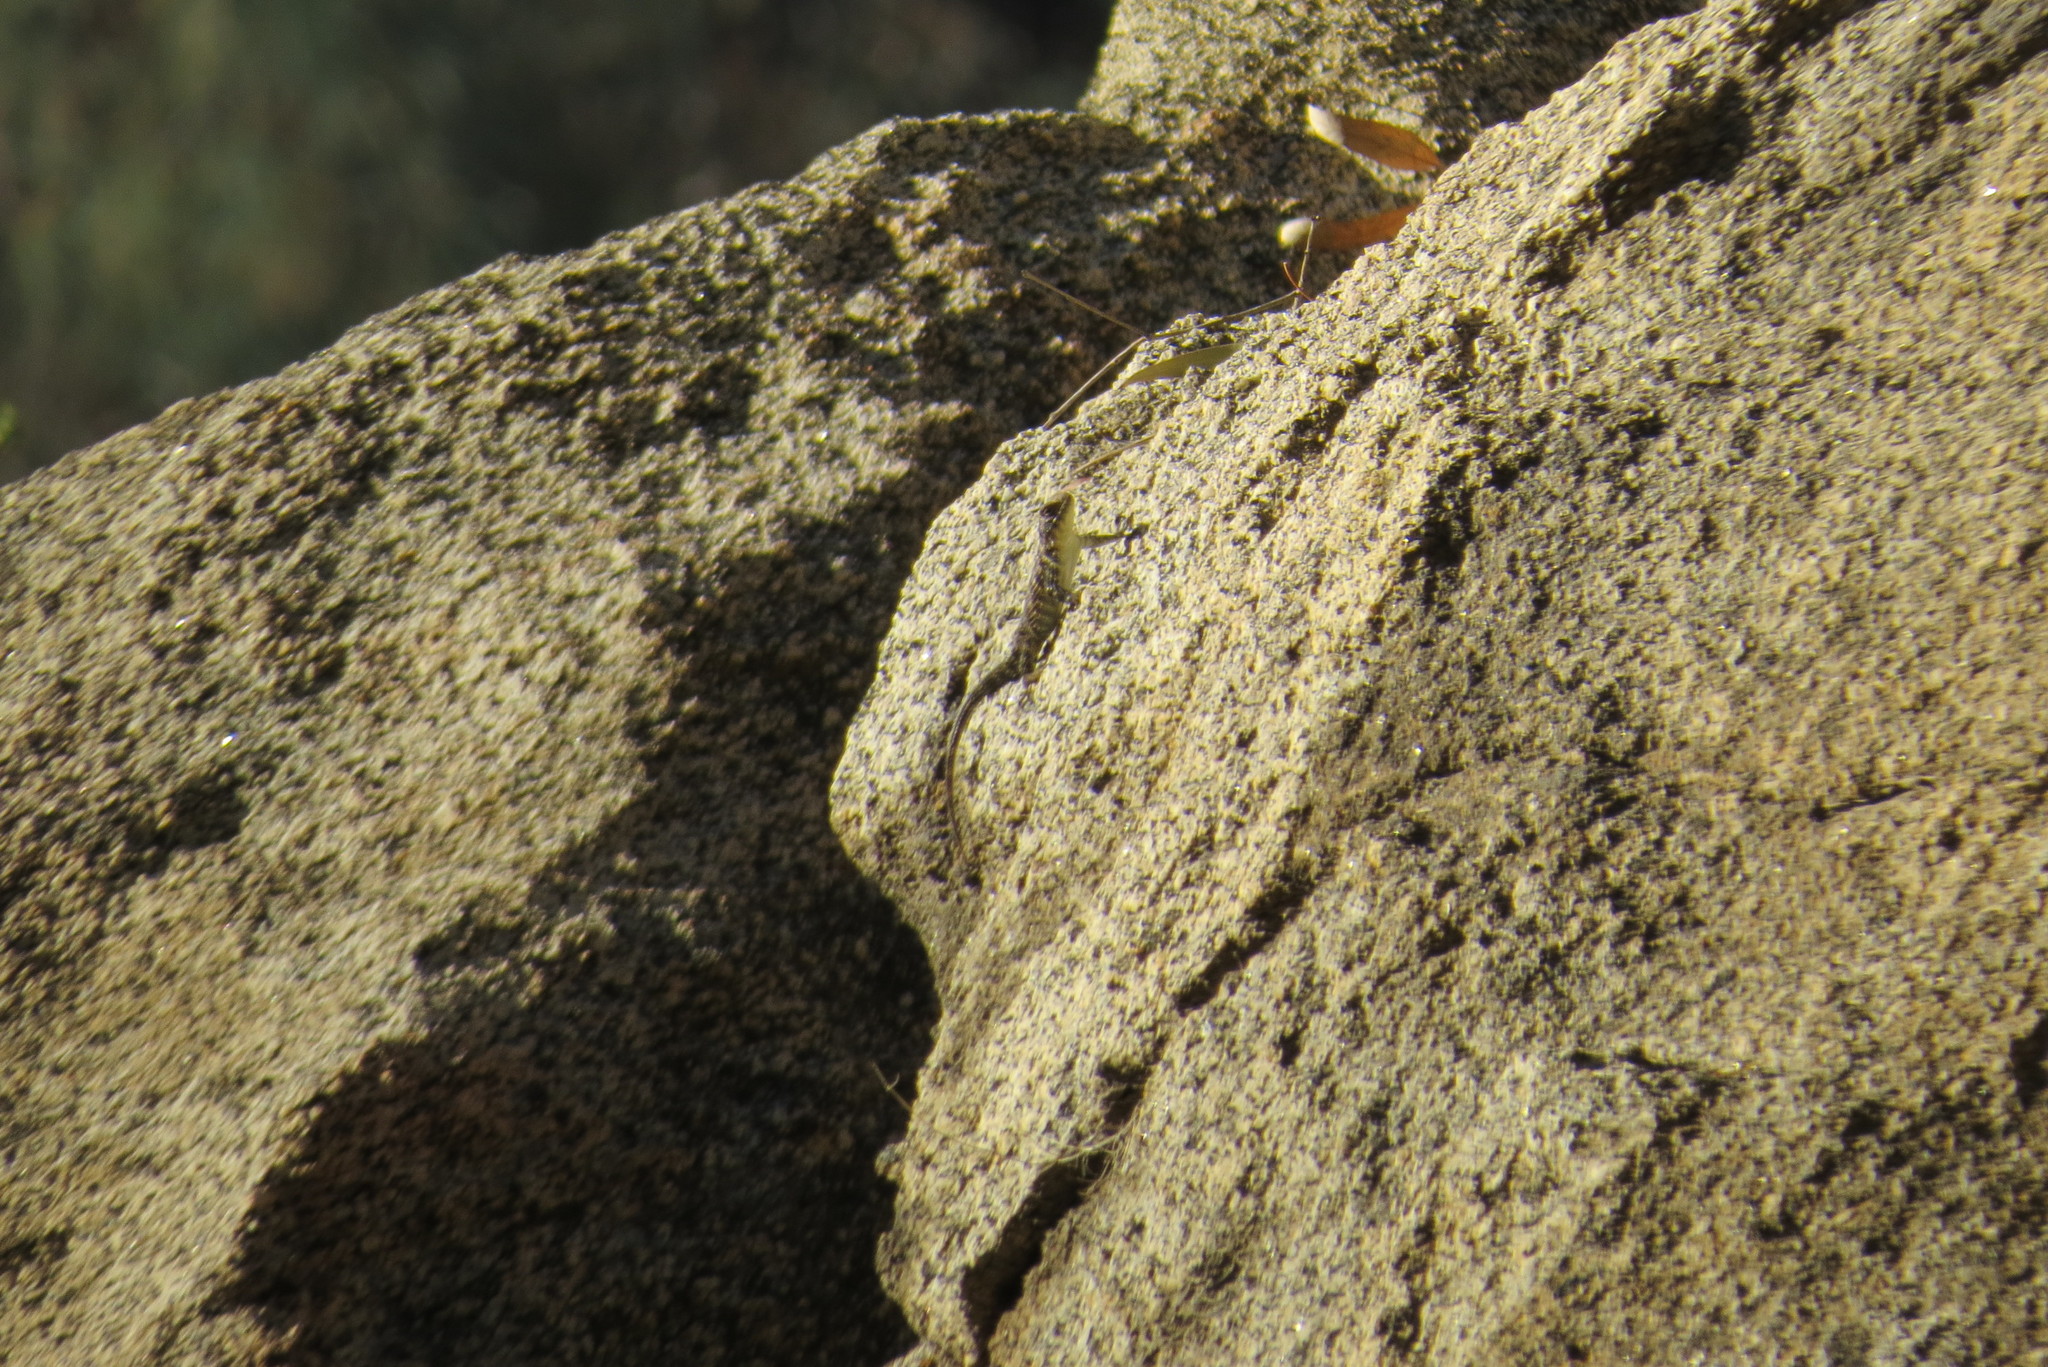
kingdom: Animalia
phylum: Chordata
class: Squamata
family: Phrynosomatidae
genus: Sceloporus
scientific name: Sceloporus orcutti
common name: Granite spiny lizard
